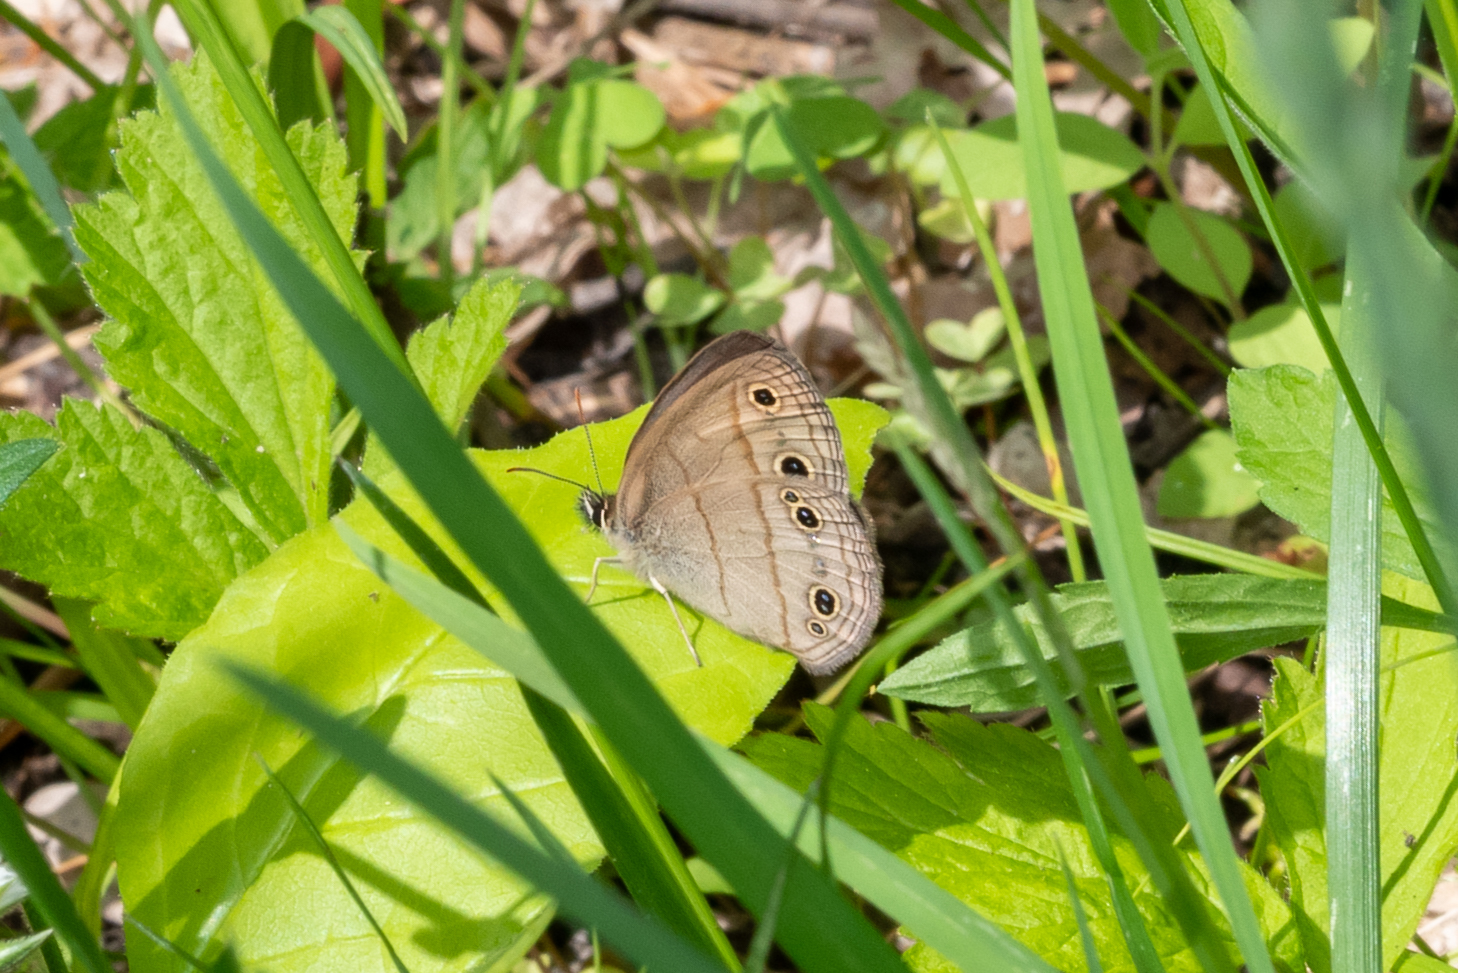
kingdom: Animalia
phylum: Arthropoda
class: Insecta
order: Lepidoptera
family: Nymphalidae
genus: Euptychia
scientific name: Euptychia cymela
